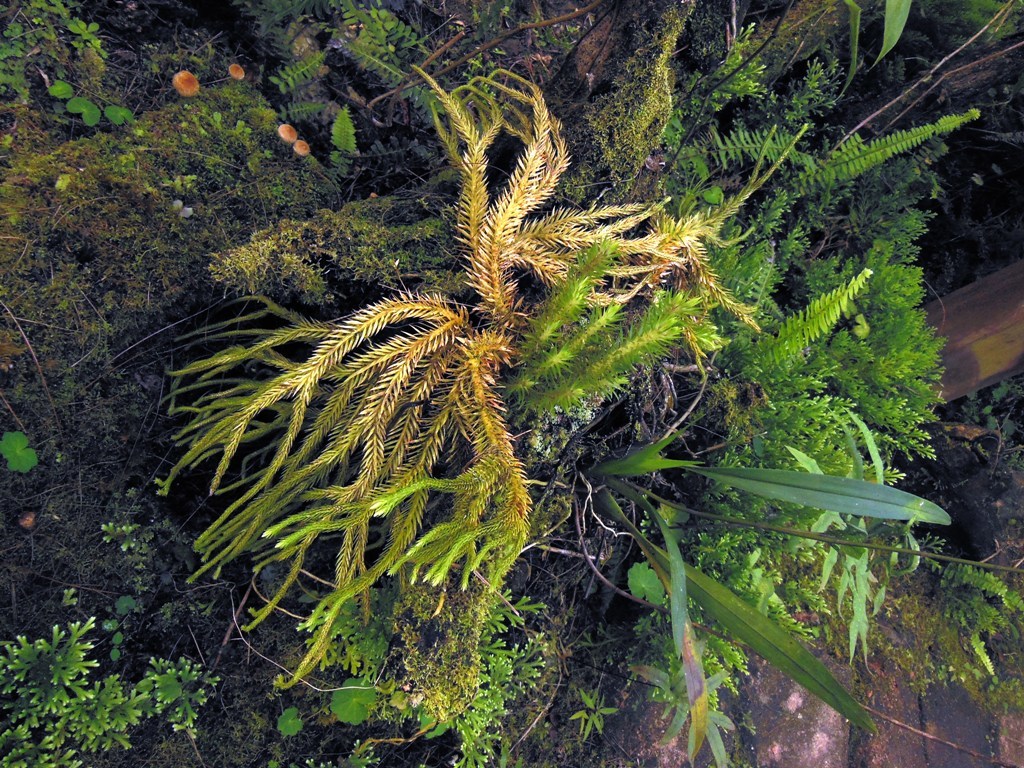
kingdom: Plantae
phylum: Tracheophyta
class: Lycopodiopsida
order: Lycopodiales
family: Lycopodiaceae
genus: Phlegmariurus
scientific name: Phlegmariurus taxifolius
